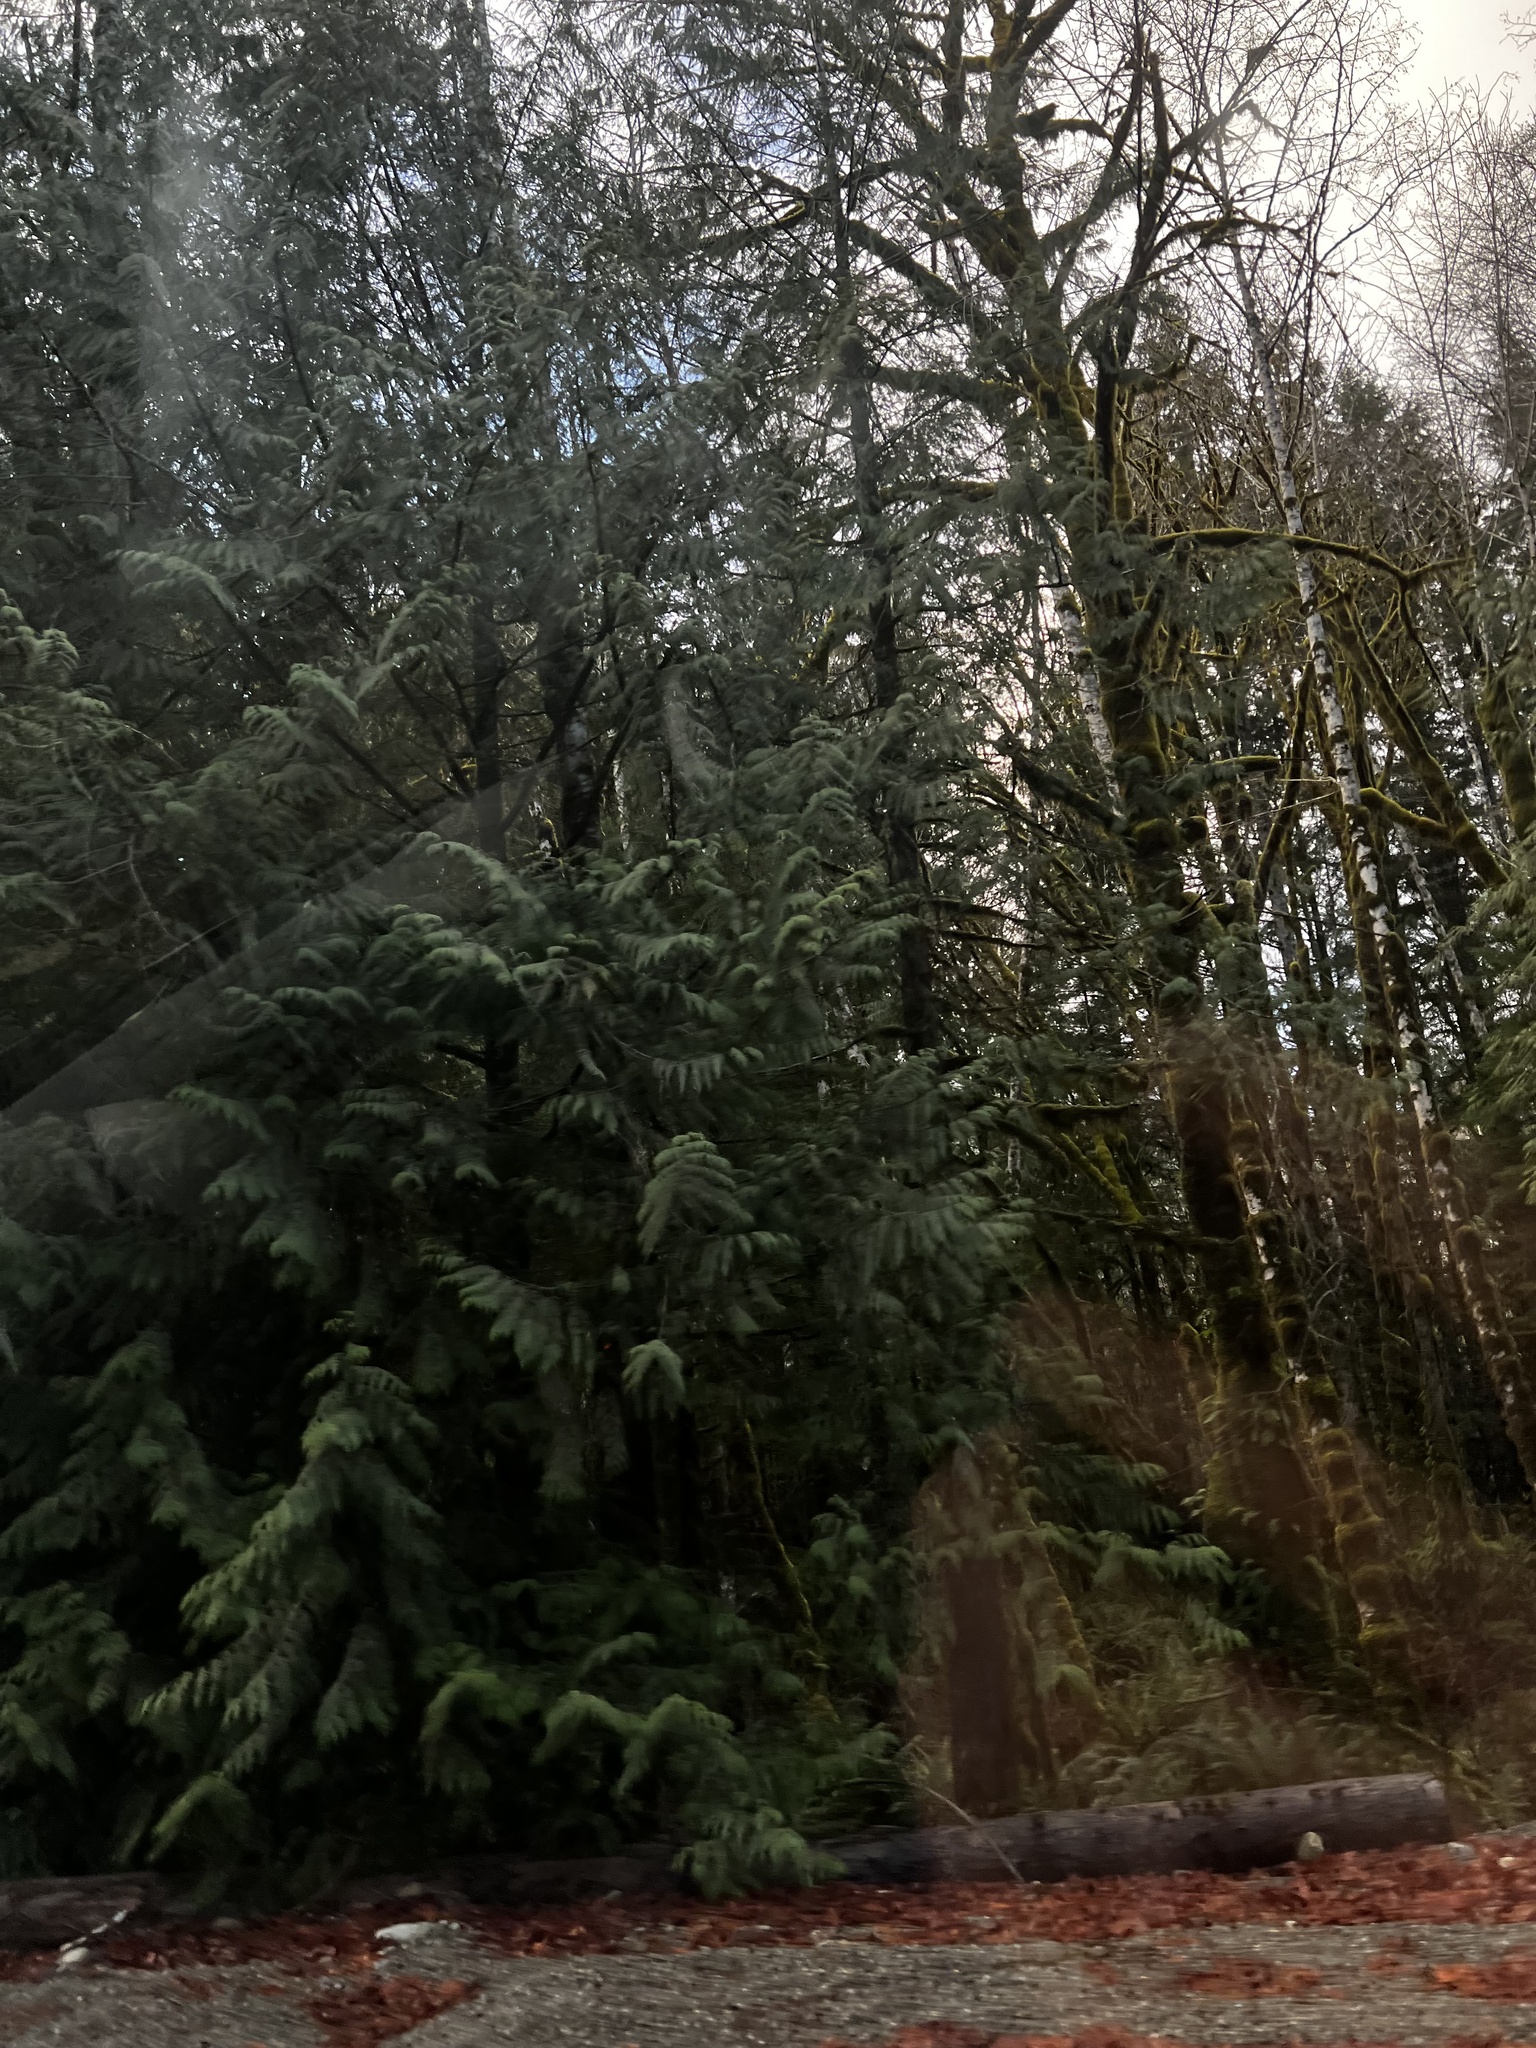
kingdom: Plantae
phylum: Tracheophyta
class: Pinopsida
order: Pinales
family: Cupressaceae
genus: Thuja
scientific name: Thuja plicata
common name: Western red-cedar
